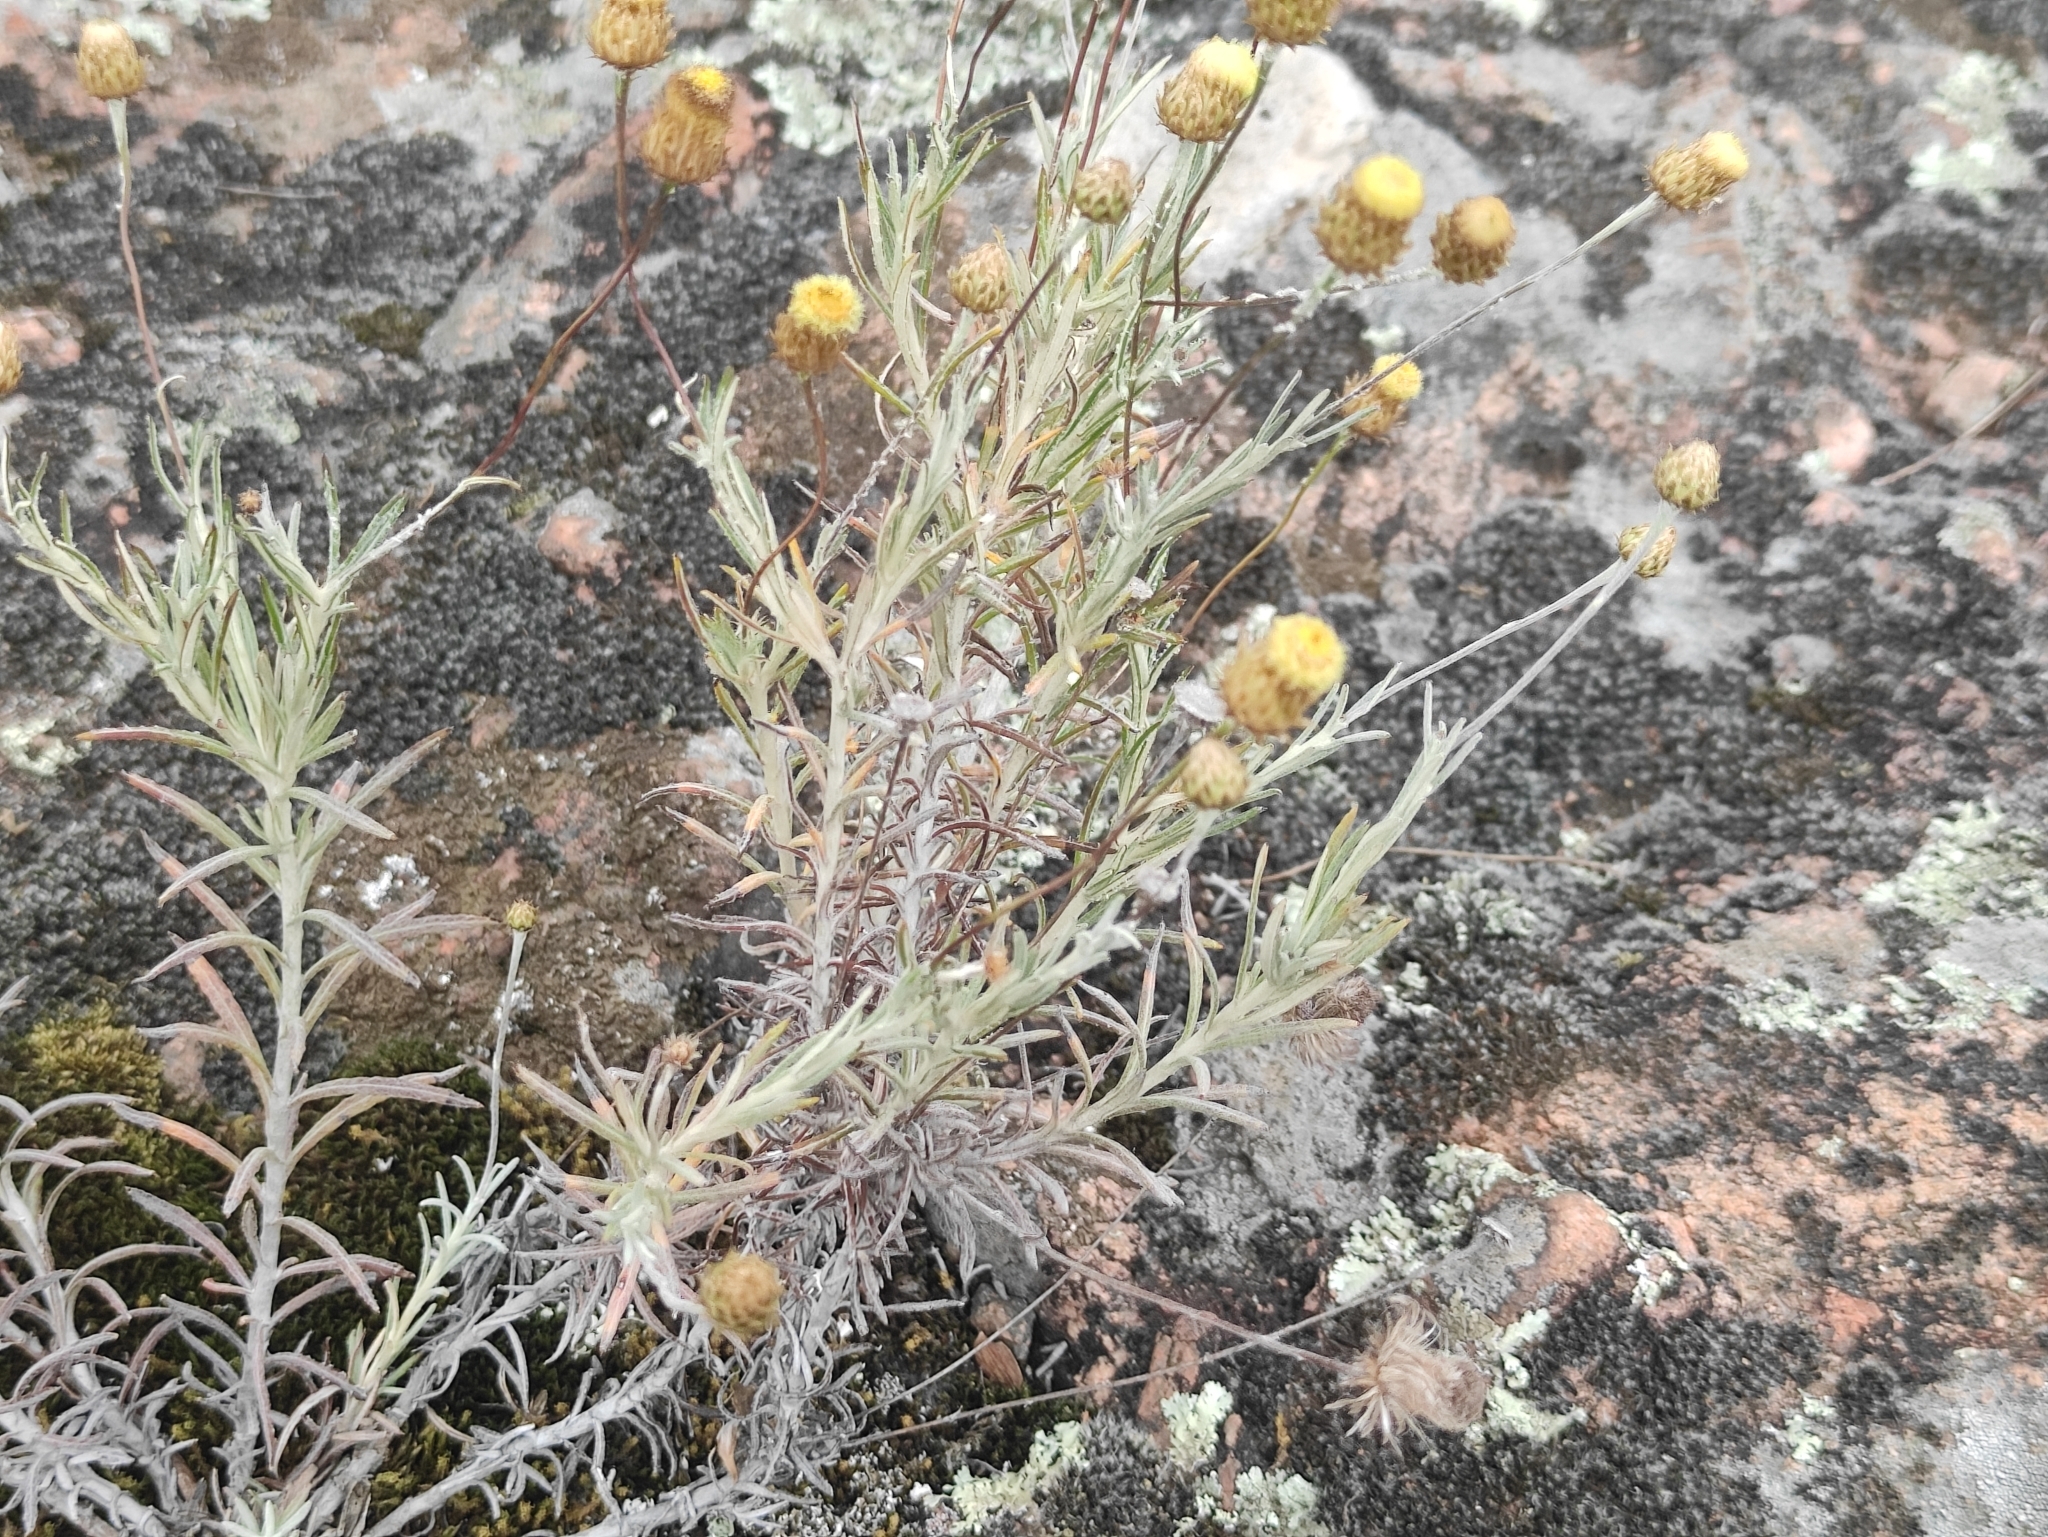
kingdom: Plantae
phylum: Tracheophyta
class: Magnoliopsida
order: Asterales
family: Asteraceae
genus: Phagnalon
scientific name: Phagnalon saxatile
